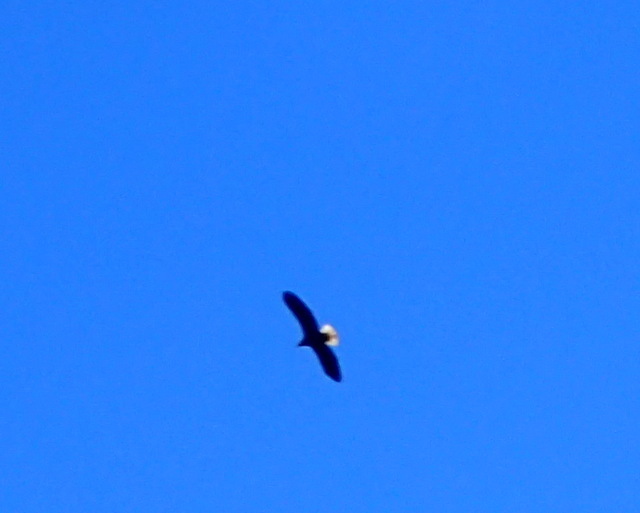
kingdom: Animalia
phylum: Chordata
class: Aves
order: Accipitriformes
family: Accipitridae
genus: Haliaeetus
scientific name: Haliaeetus leucocephalus
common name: Bald eagle
